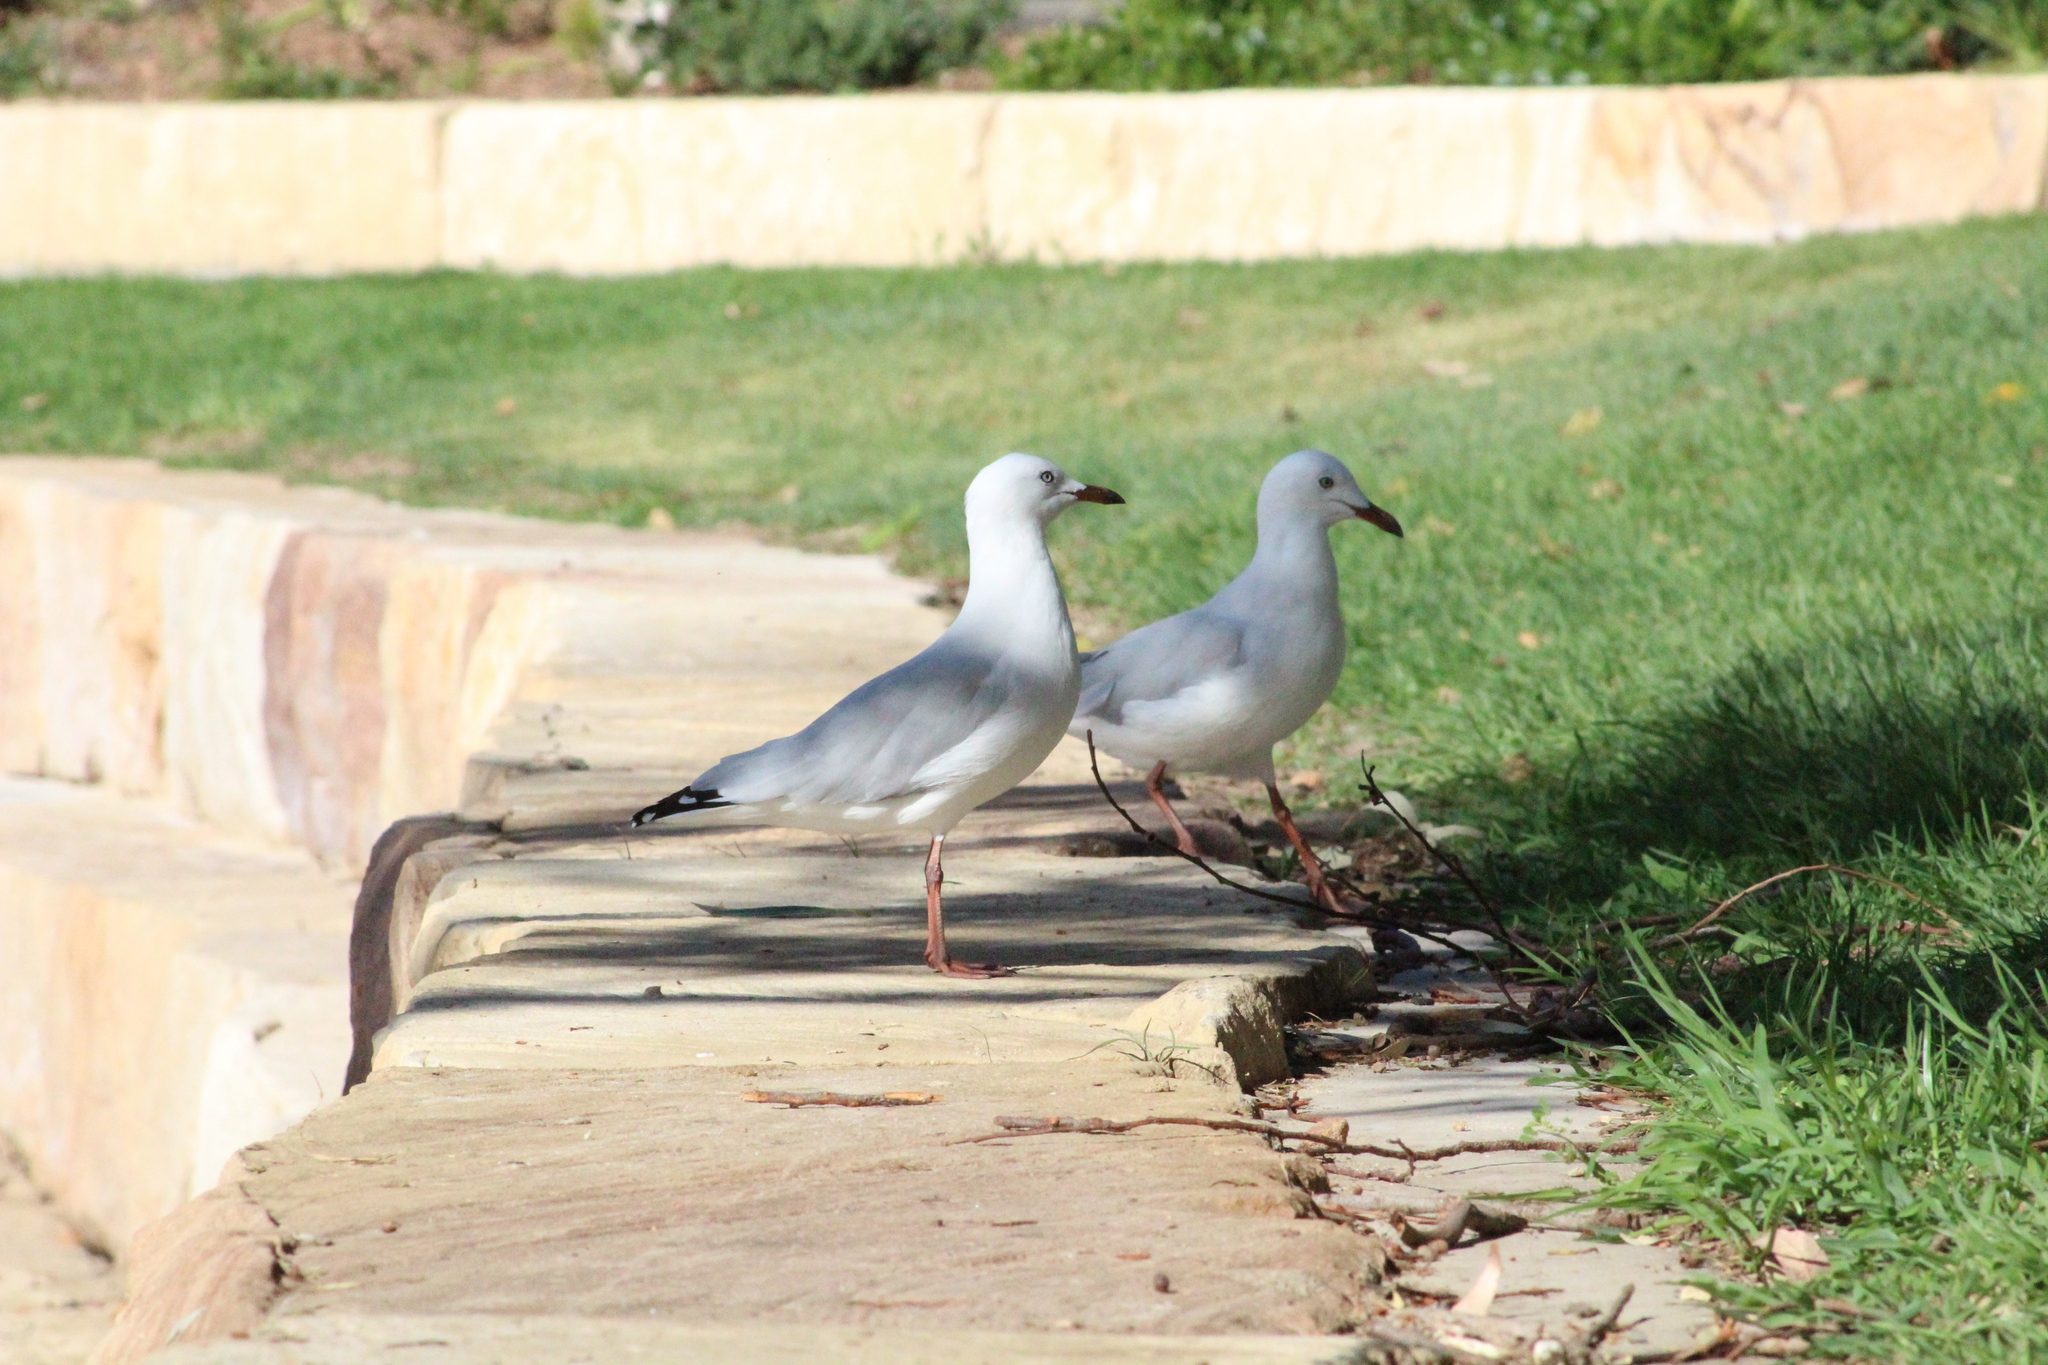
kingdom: Animalia
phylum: Chordata
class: Aves
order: Charadriiformes
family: Laridae
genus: Chroicocephalus
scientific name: Chroicocephalus novaehollandiae
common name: Silver gull
